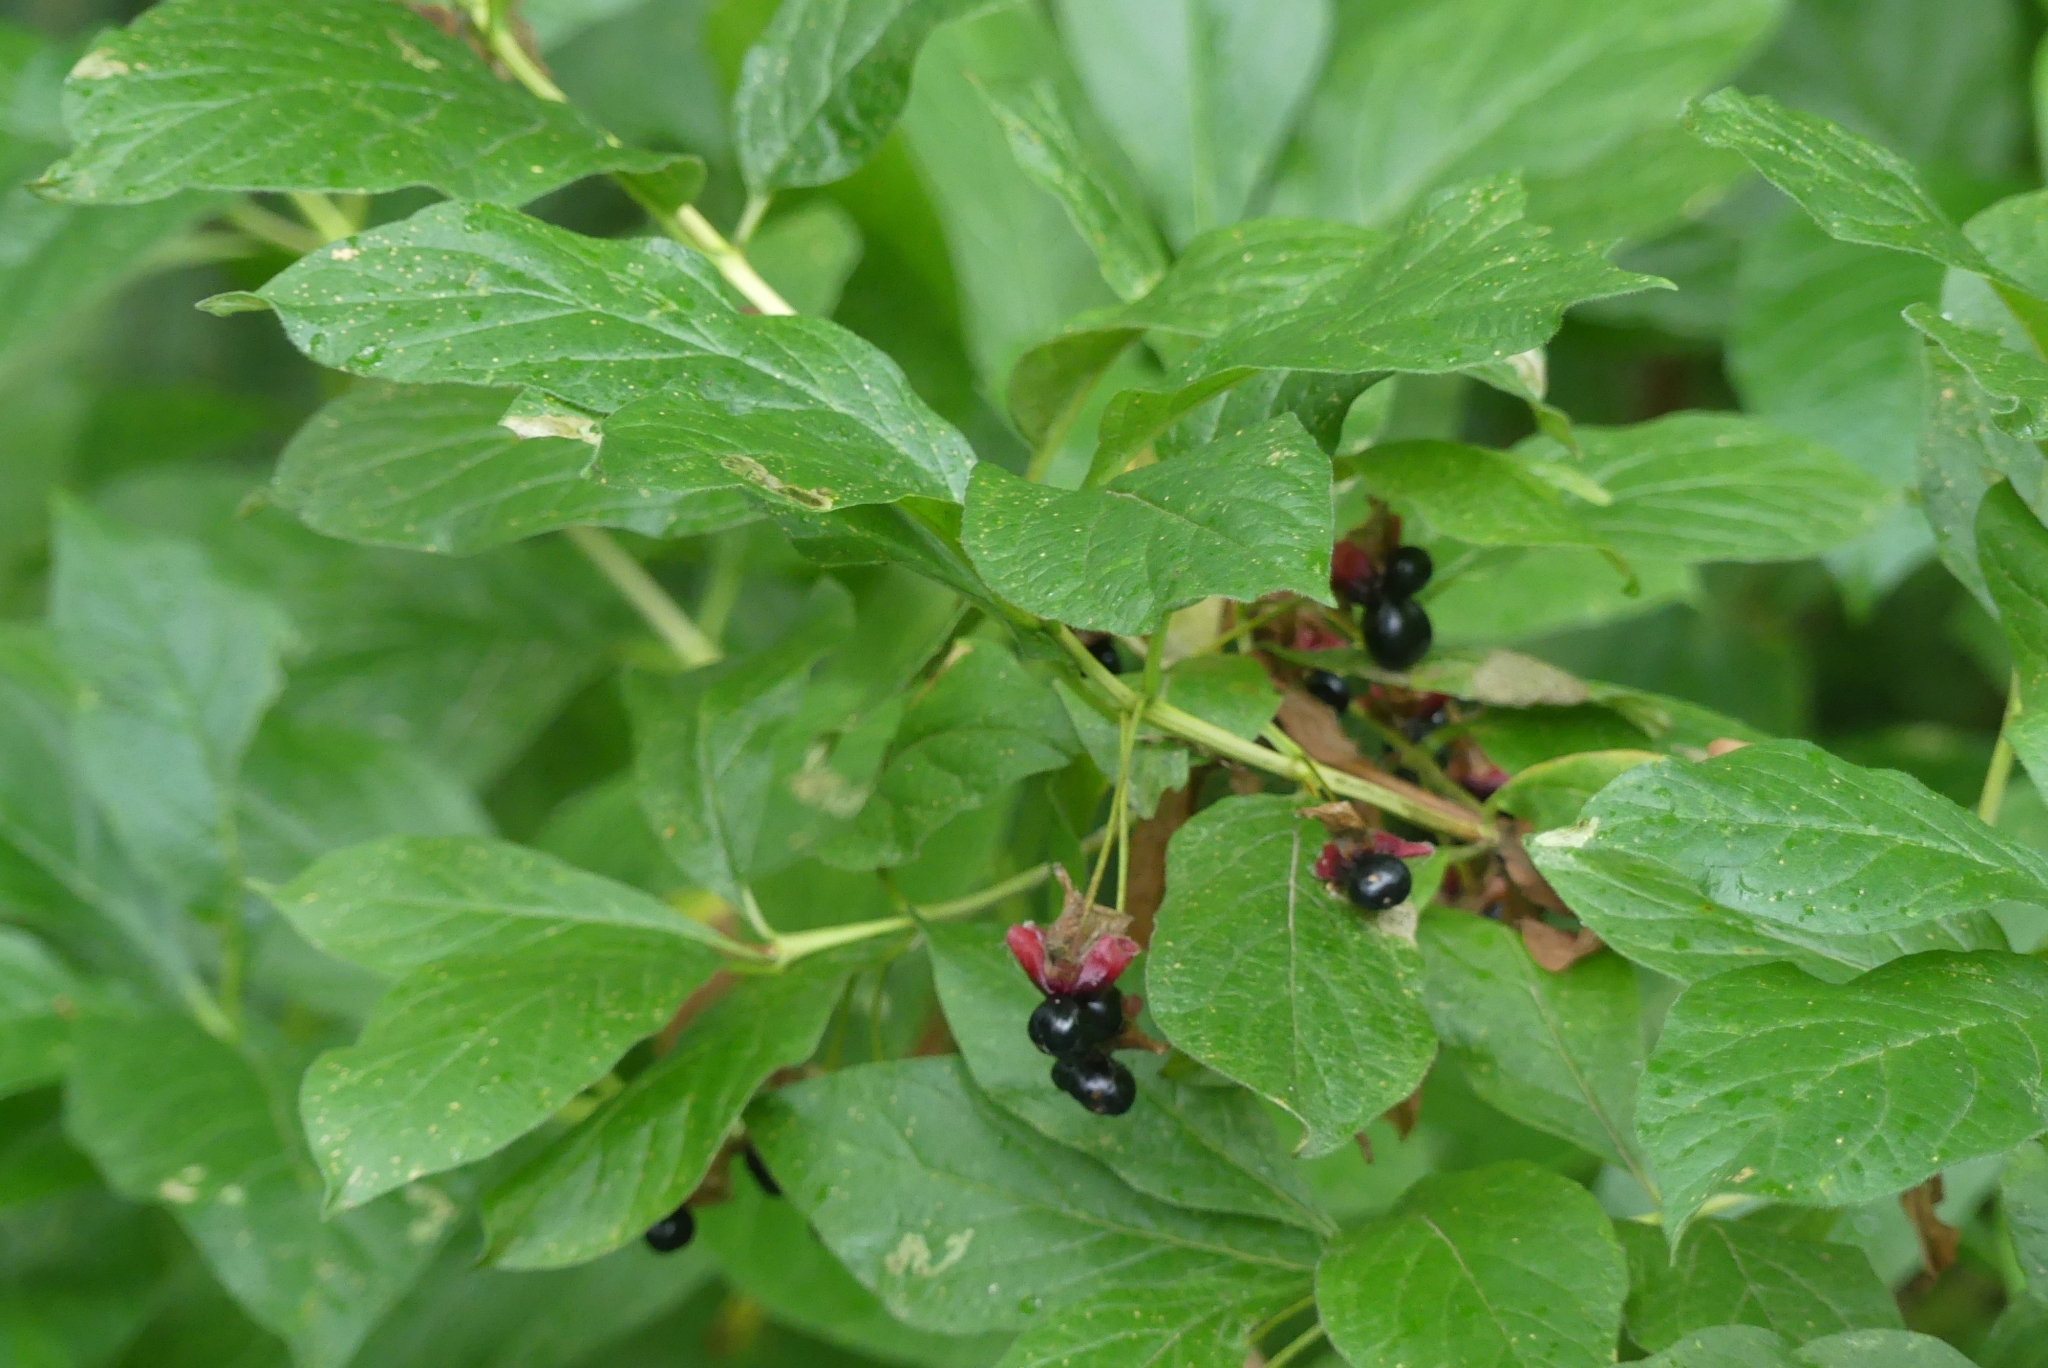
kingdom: Plantae
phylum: Tracheophyta
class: Magnoliopsida
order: Dipsacales
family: Caprifoliaceae
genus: Lonicera
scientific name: Lonicera involucrata
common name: Californian honeysuckle
